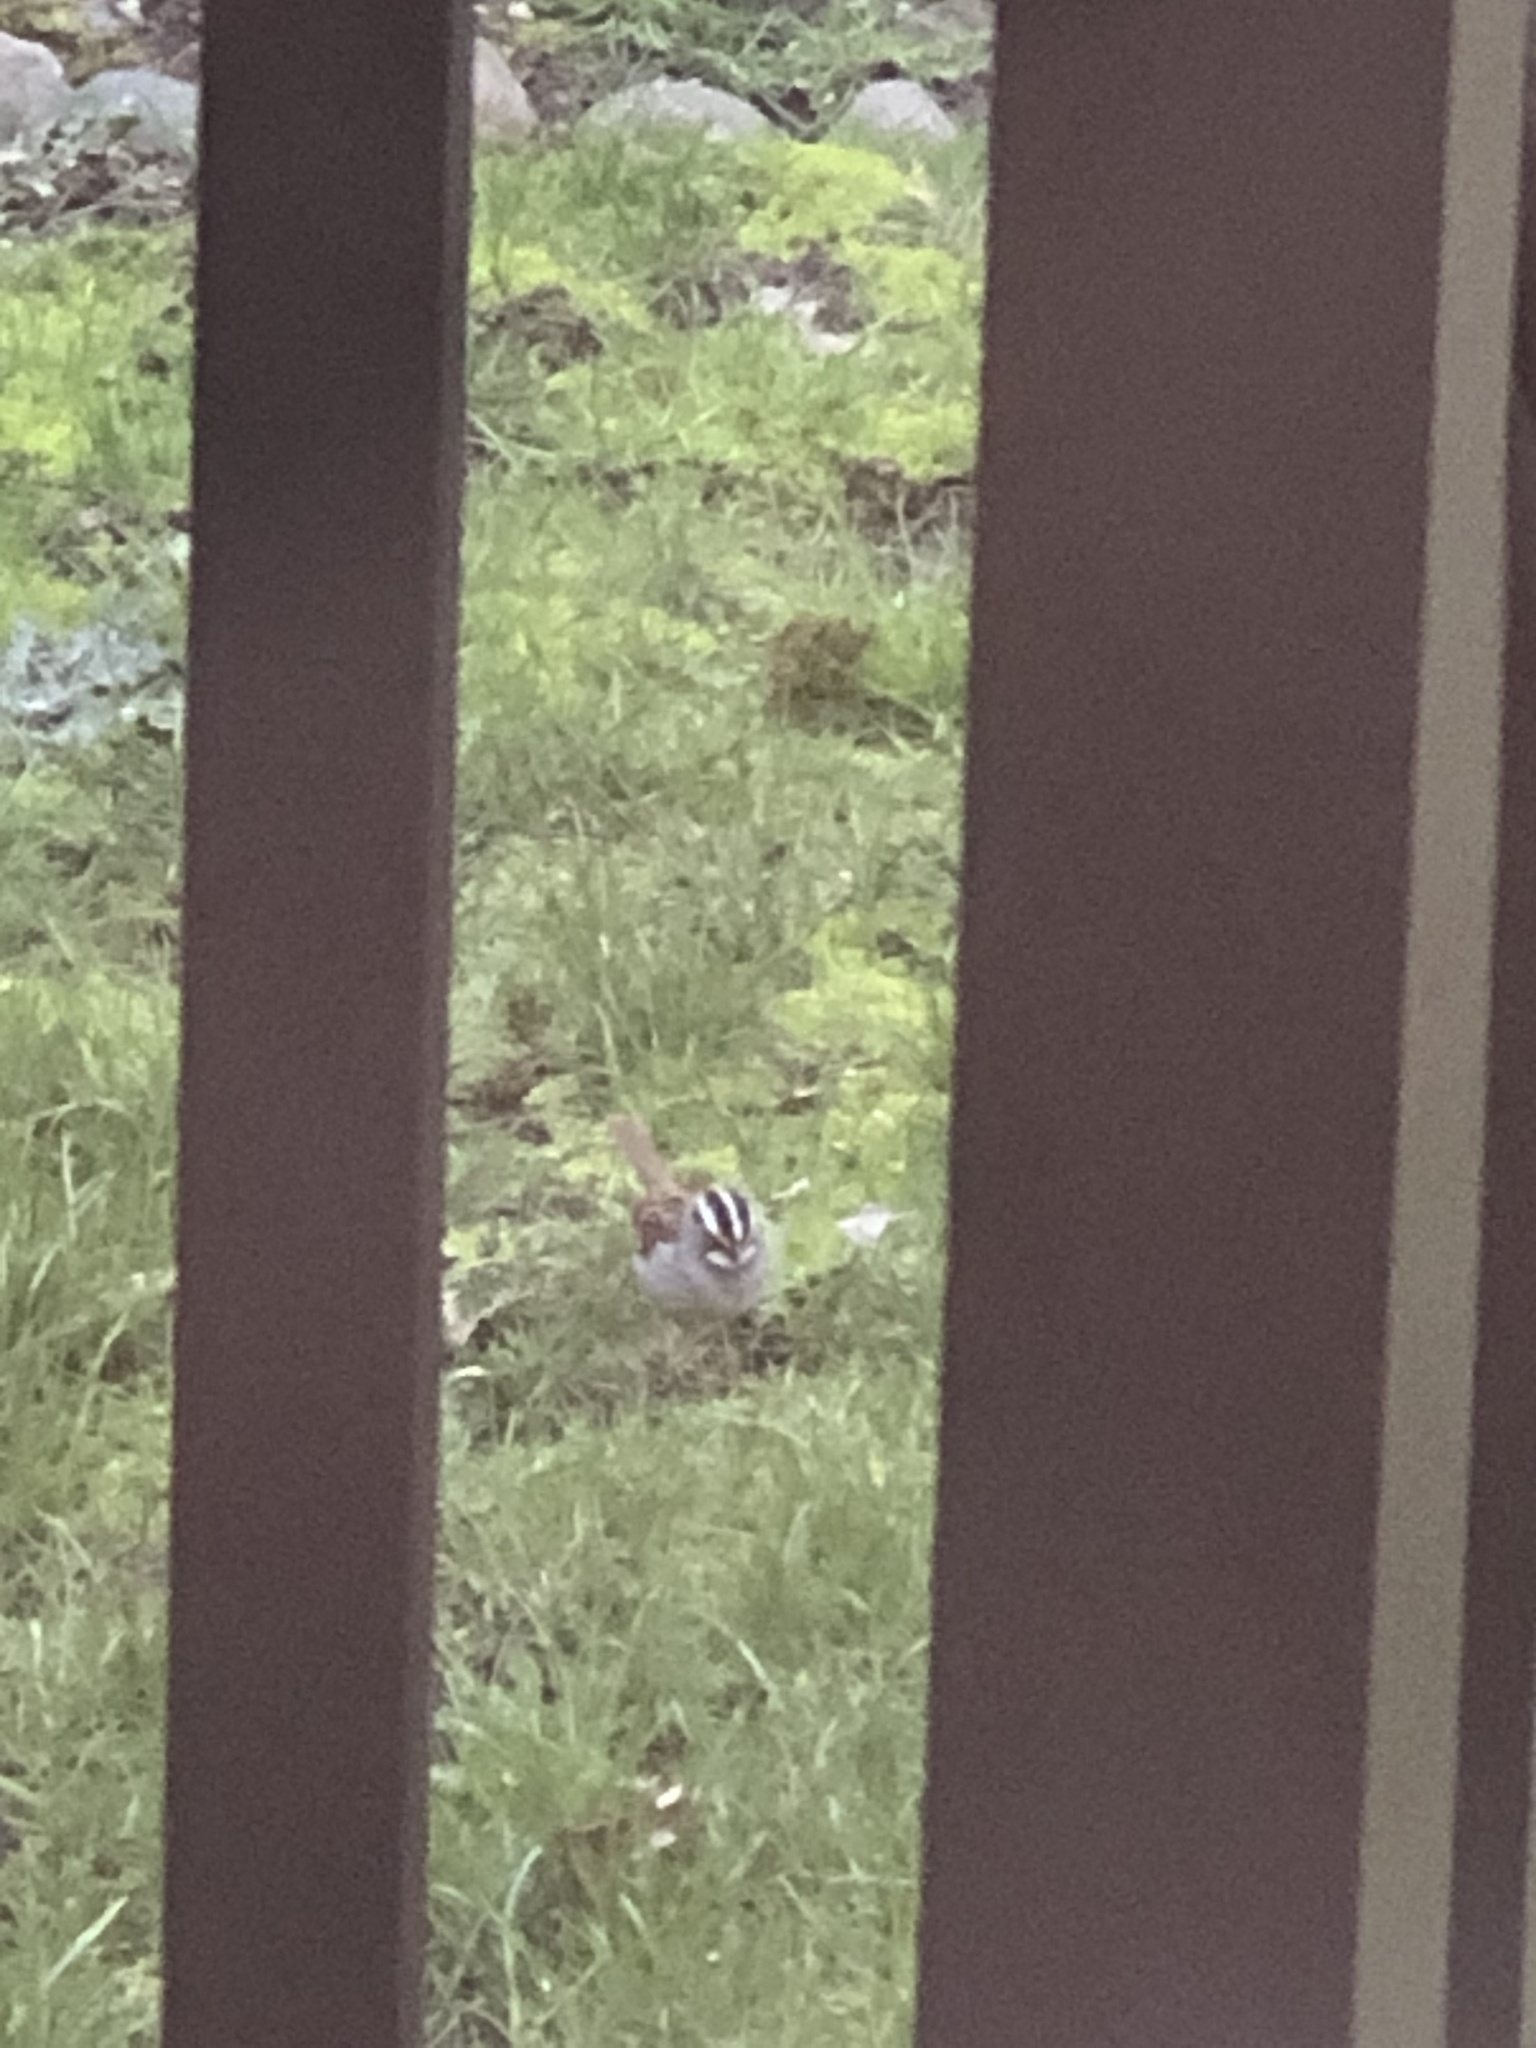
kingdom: Animalia
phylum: Chordata
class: Aves
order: Passeriformes
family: Passerellidae
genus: Zonotrichia
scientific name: Zonotrichia albicollis
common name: White-throated sparrow
